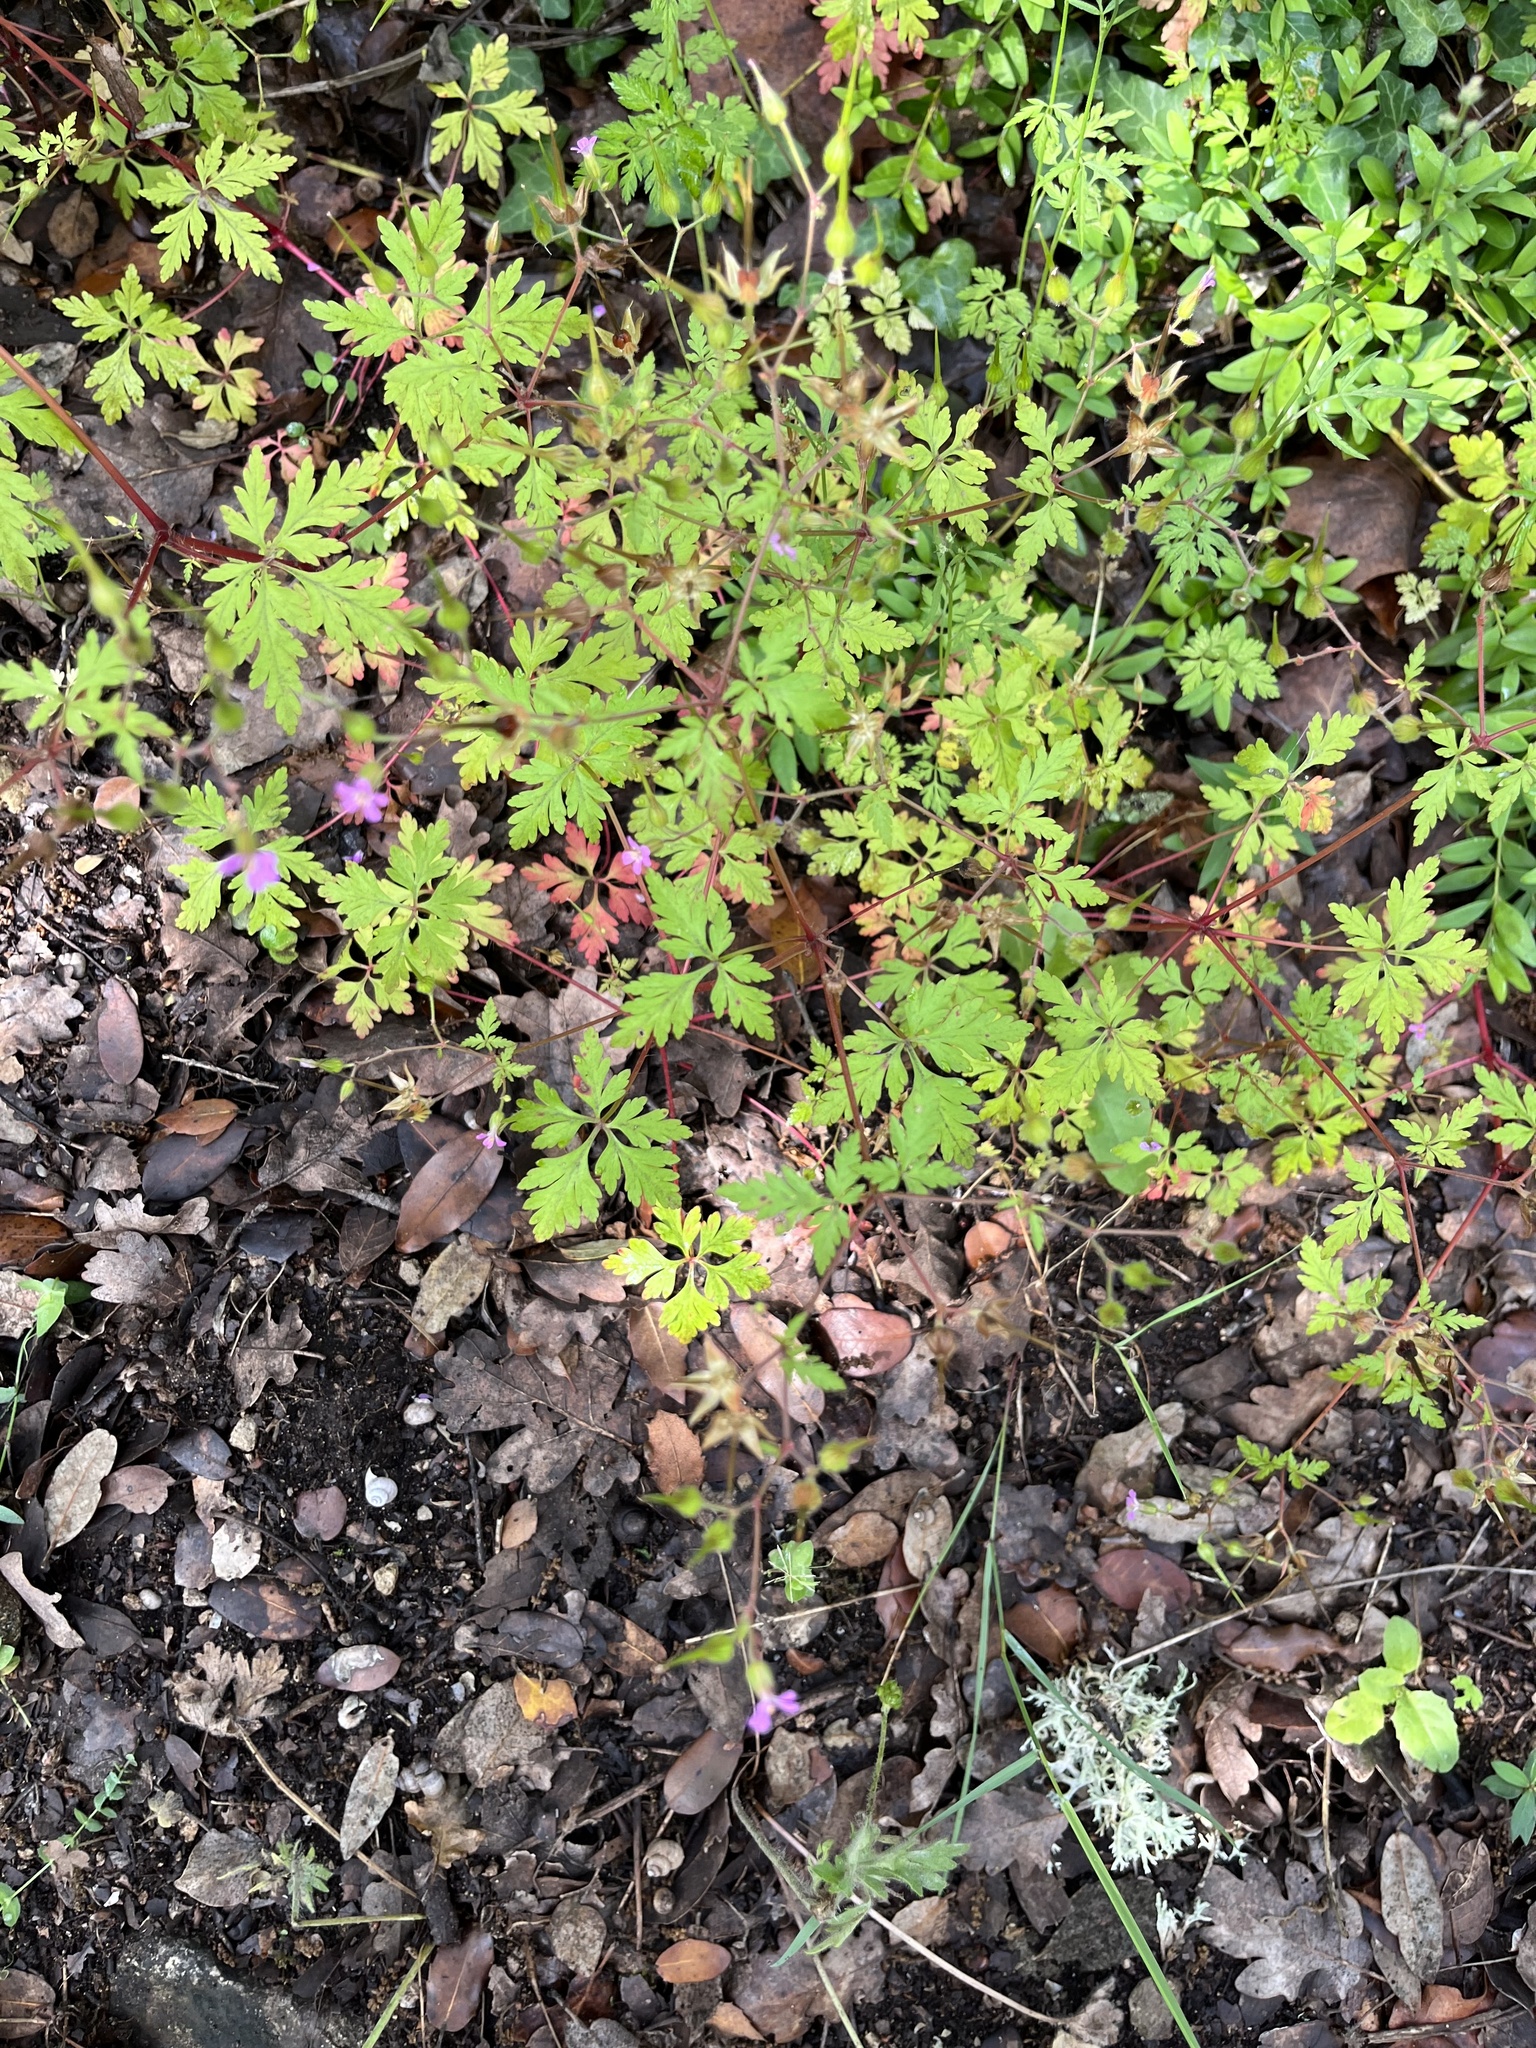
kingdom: Plantae
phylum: Tracheophyta
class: Magnoliopsida
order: Geraniales
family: Geraniaceae
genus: Geranium
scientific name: Geranium robertianum
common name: Herb-robert
